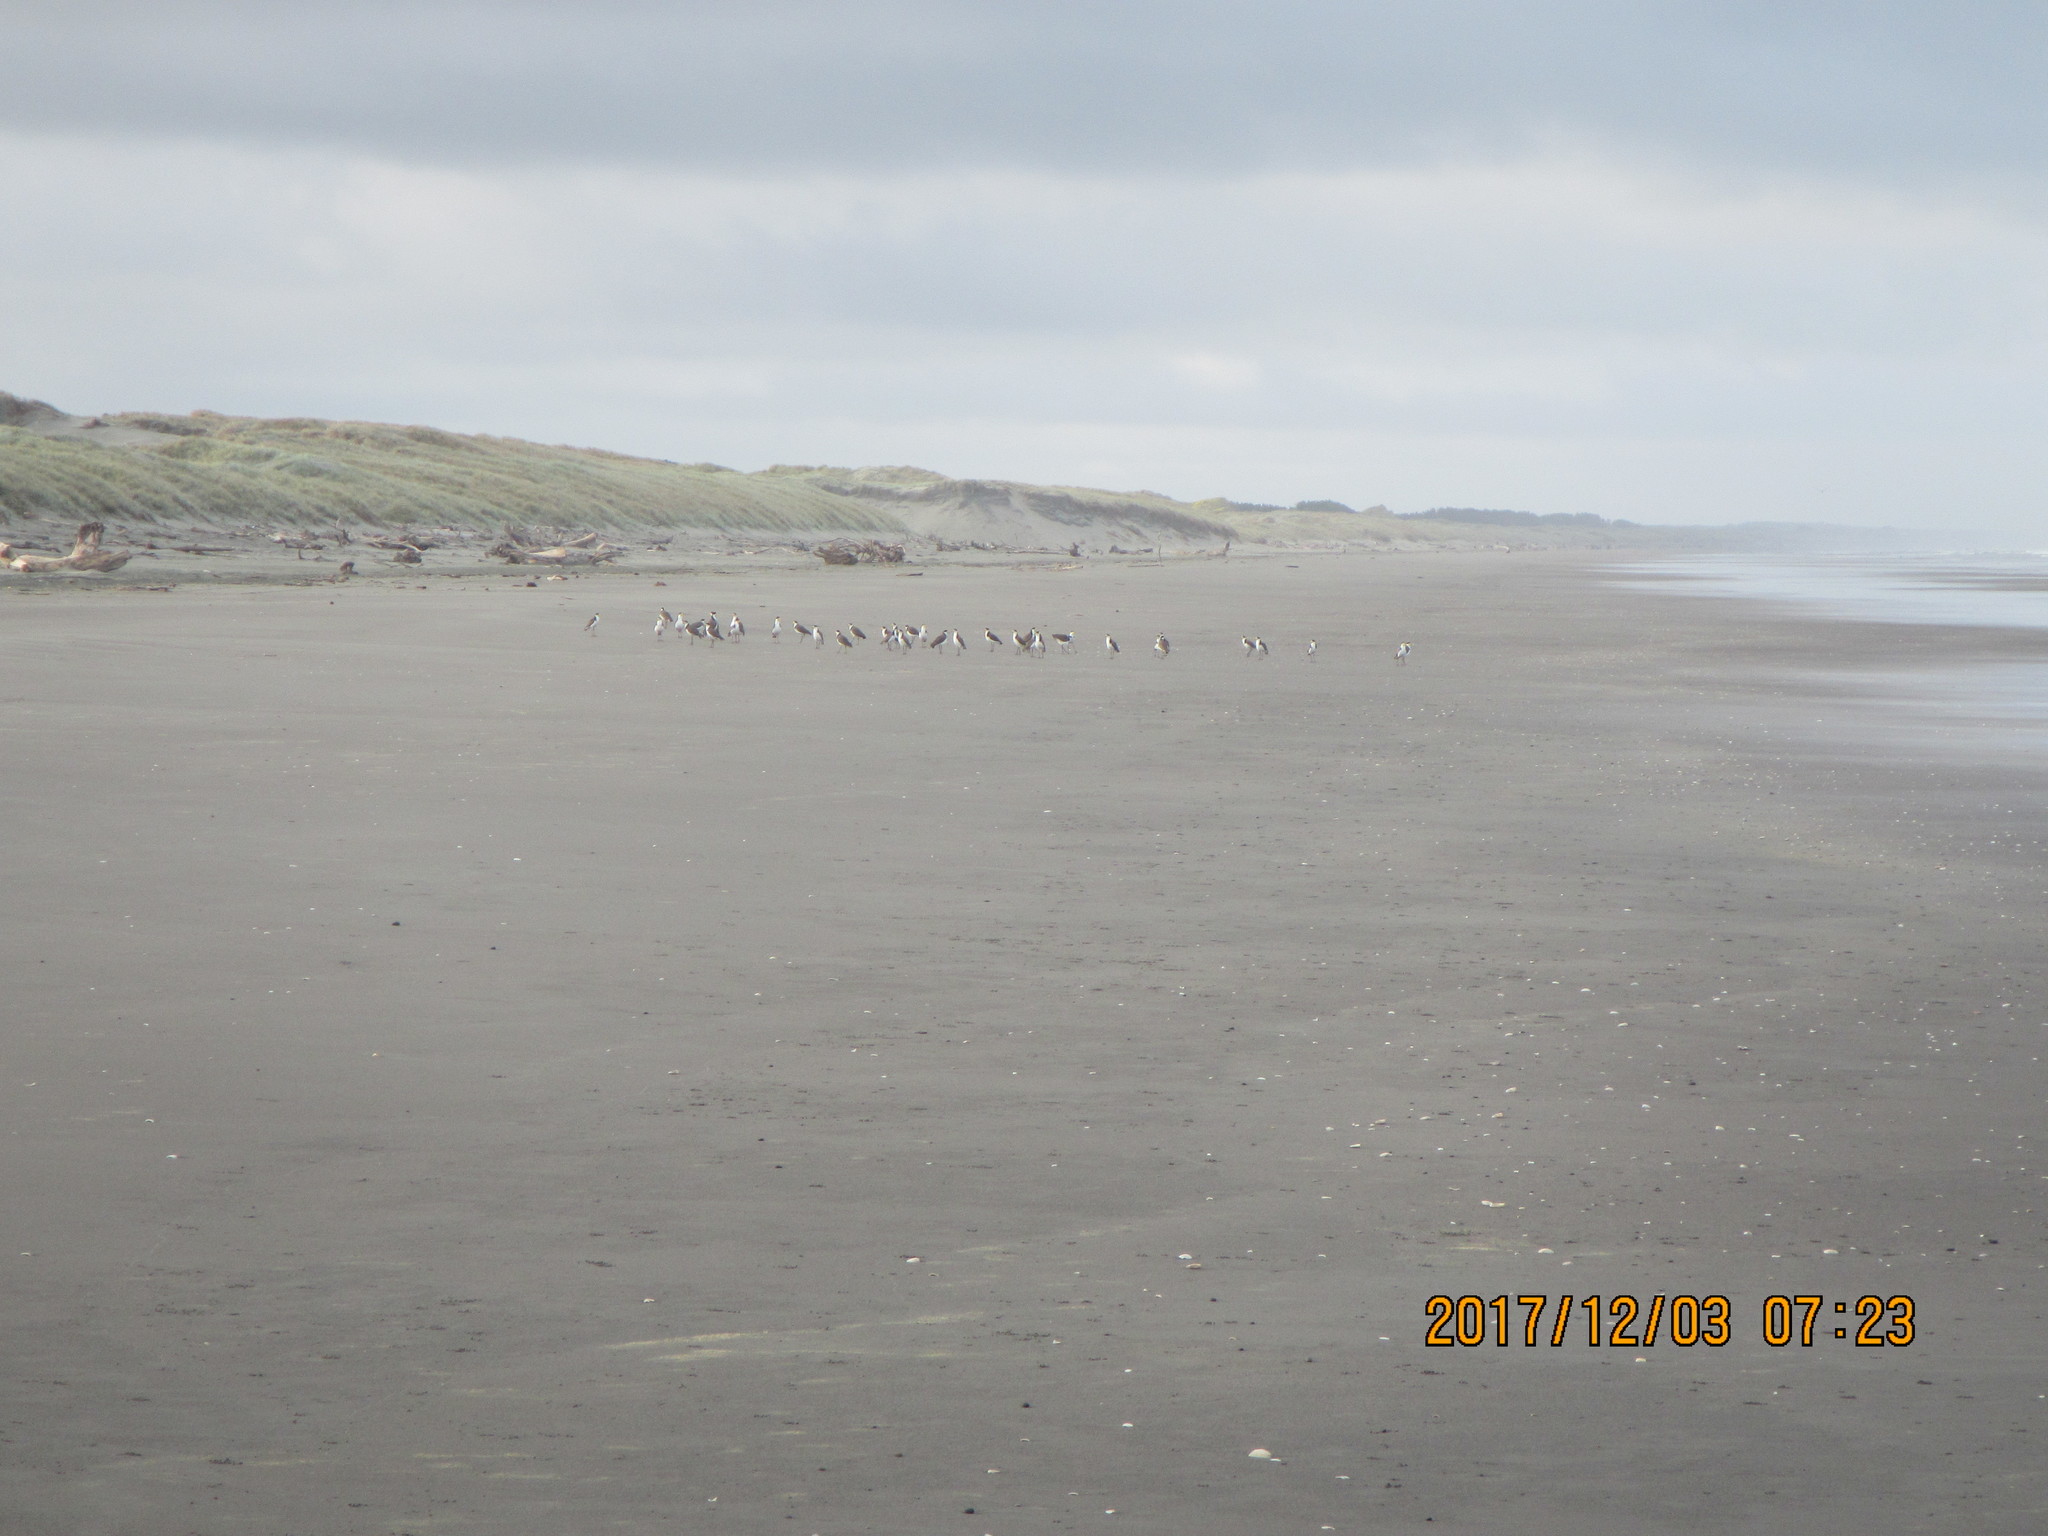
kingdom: Animalia
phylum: Chordata
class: Aves
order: Charadriiformes
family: Charadriidae
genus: Vanellus
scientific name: Vanellus miles
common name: Masked lapwing
